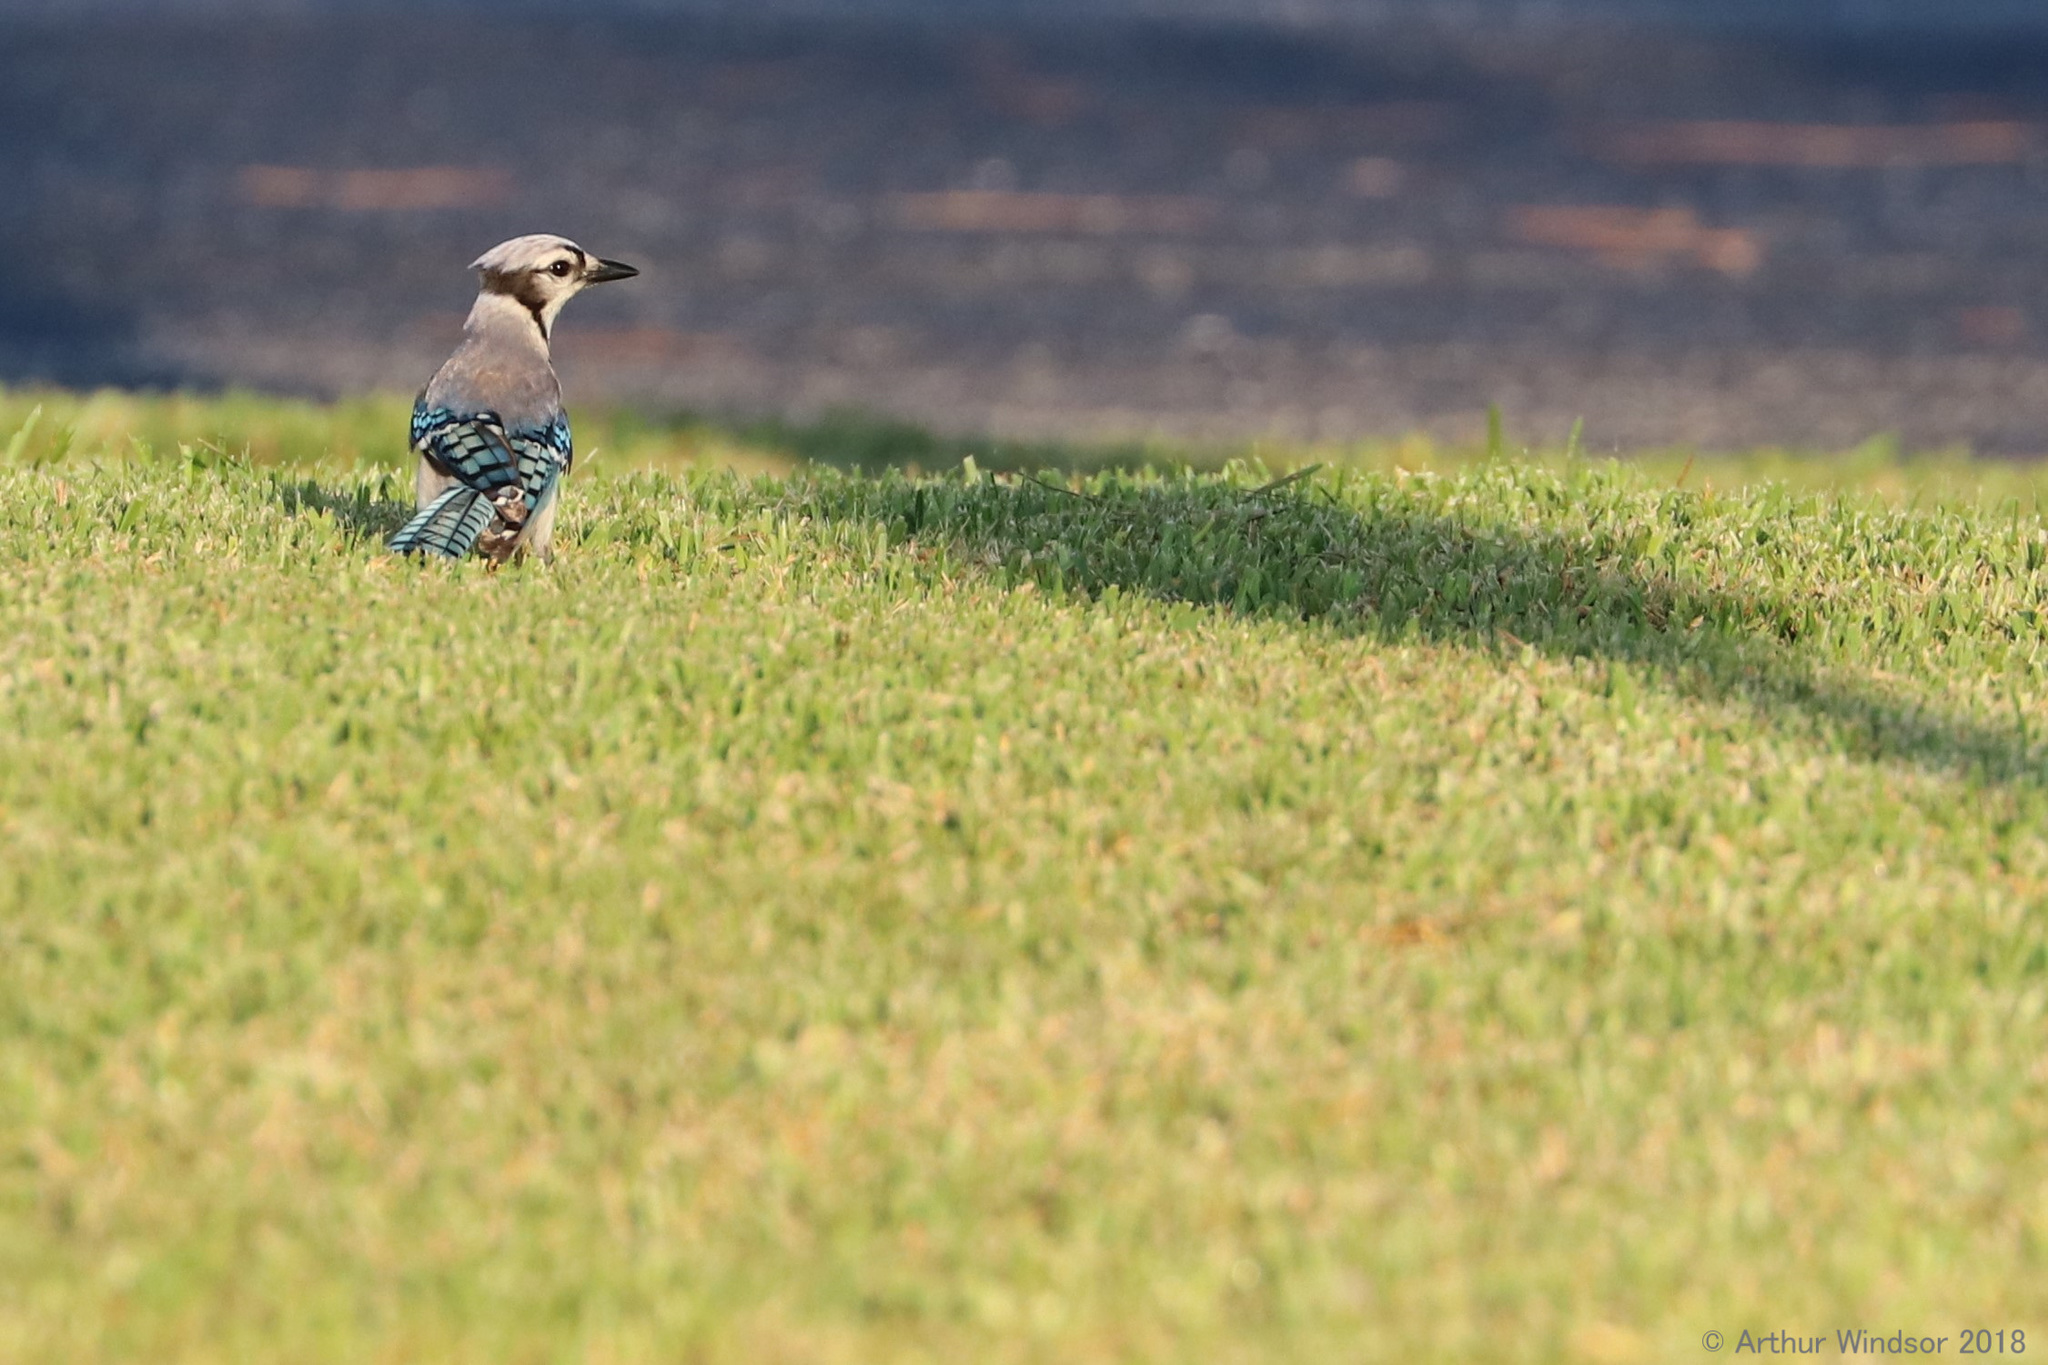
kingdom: Animalia
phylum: Chordata
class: Aves
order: Passeriformes
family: Corvidae
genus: Cyanocitta
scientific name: Cyanocitta cristata
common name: Blue jay
